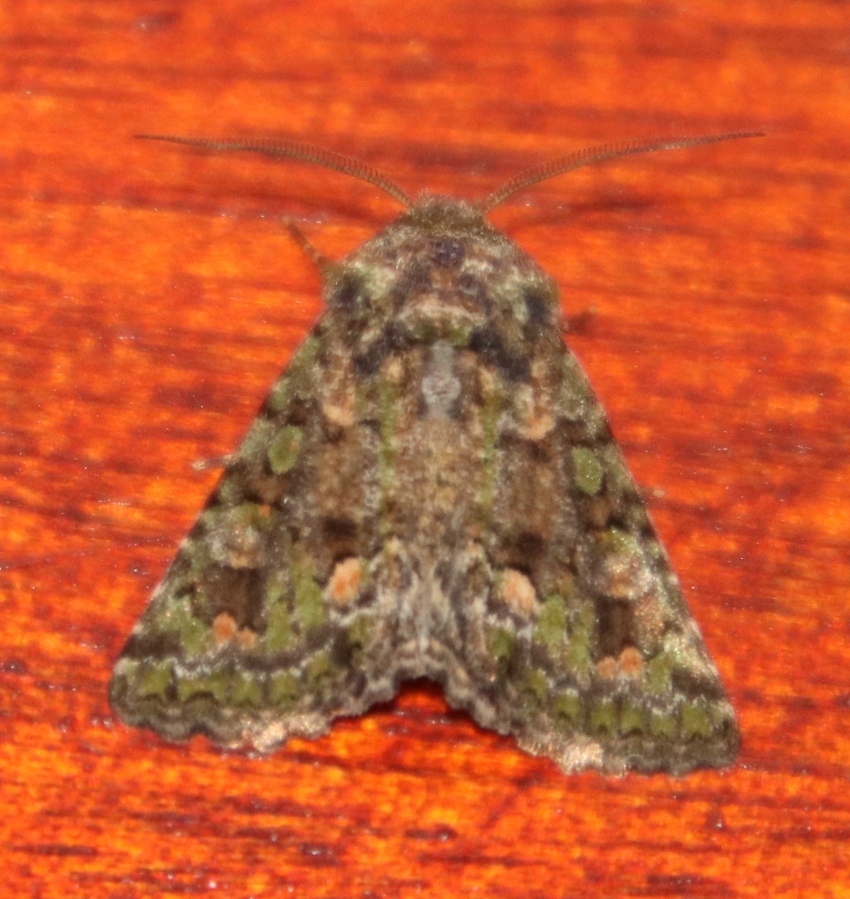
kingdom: Animalia
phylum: Arthropoda
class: Insecta
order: Lepidoptera
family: Noctuidae
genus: Klugeana
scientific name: Klugeana philoxalis
